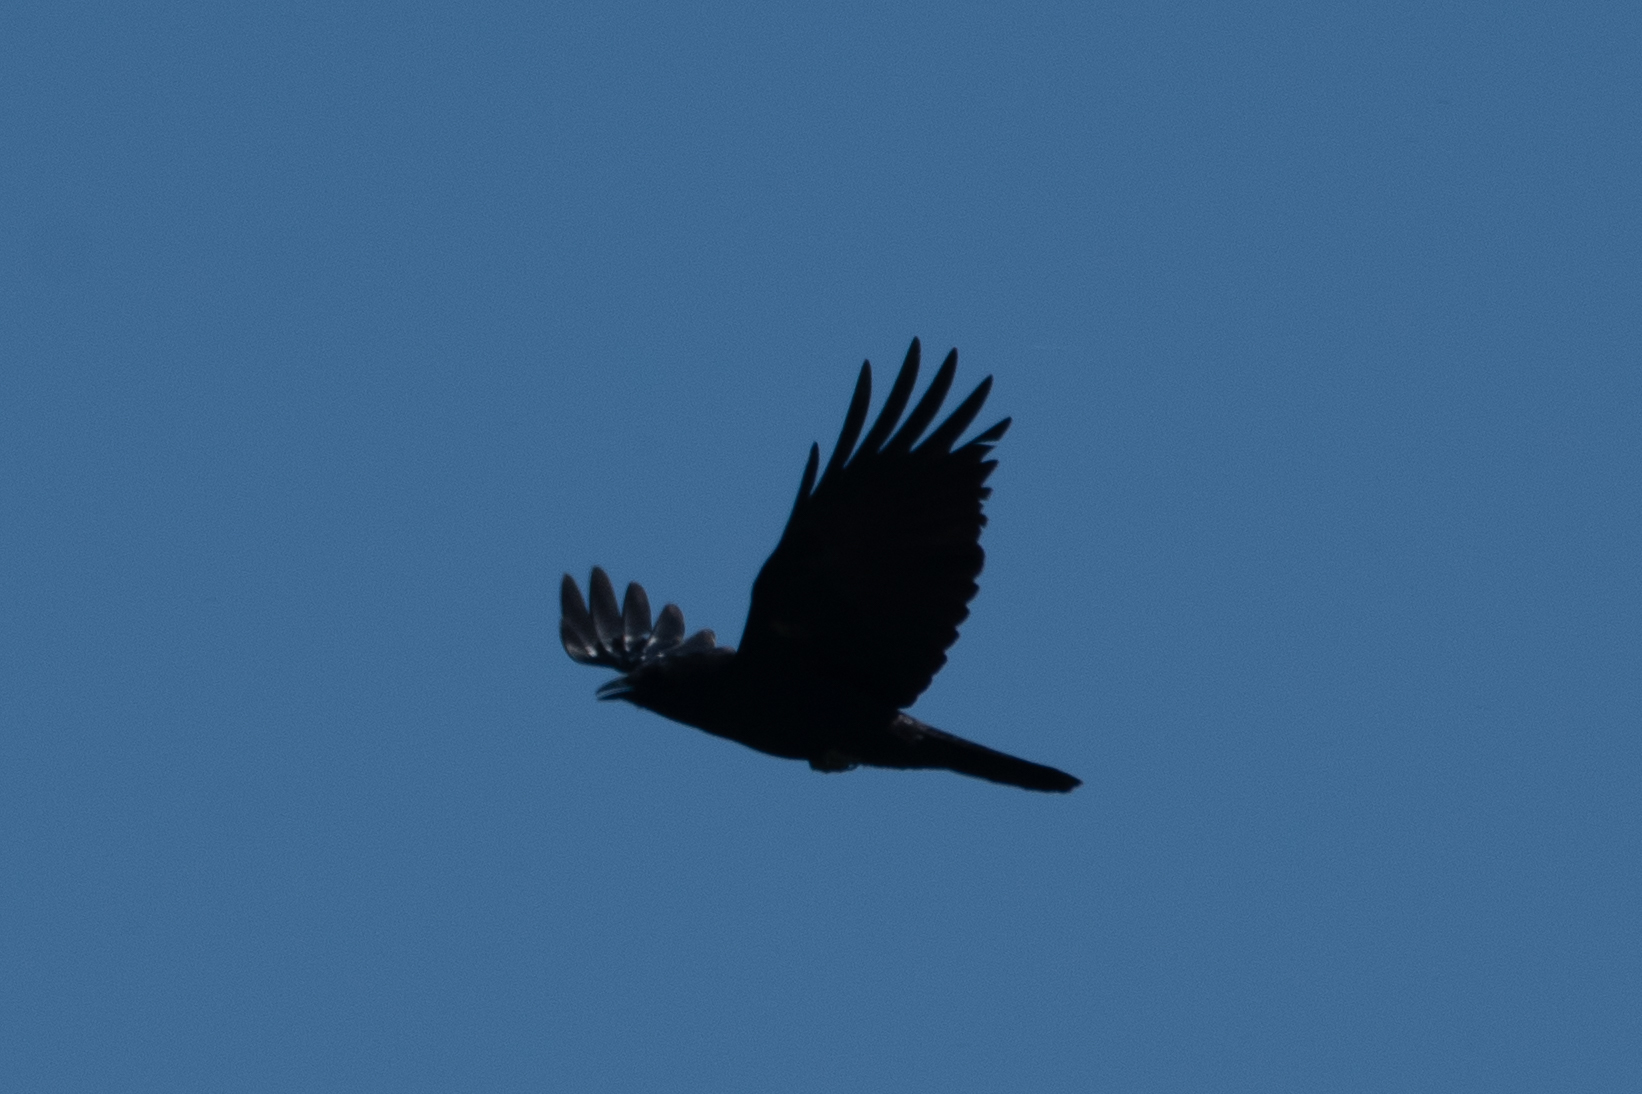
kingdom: Animalia
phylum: Chordata
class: Aves
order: Passeriformes
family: Corvidae
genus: Corvus
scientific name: Corvus brachyrhynchos
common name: American crow
